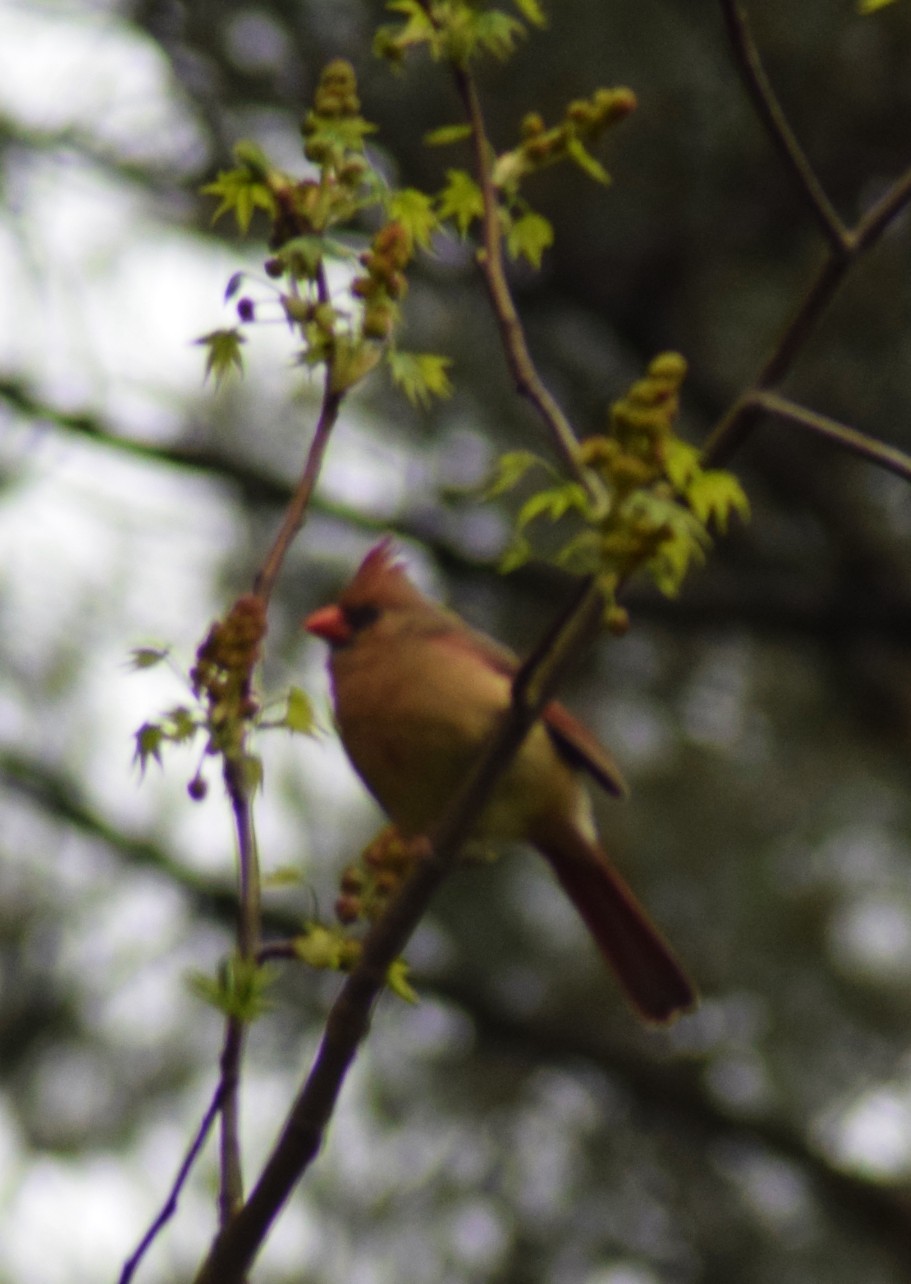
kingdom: Animalia
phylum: Chordata
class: Aves
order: Passeriformes
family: Cardinalidae
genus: Cardinalis
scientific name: Cardinalis cardinalis
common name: Northern cardinal
